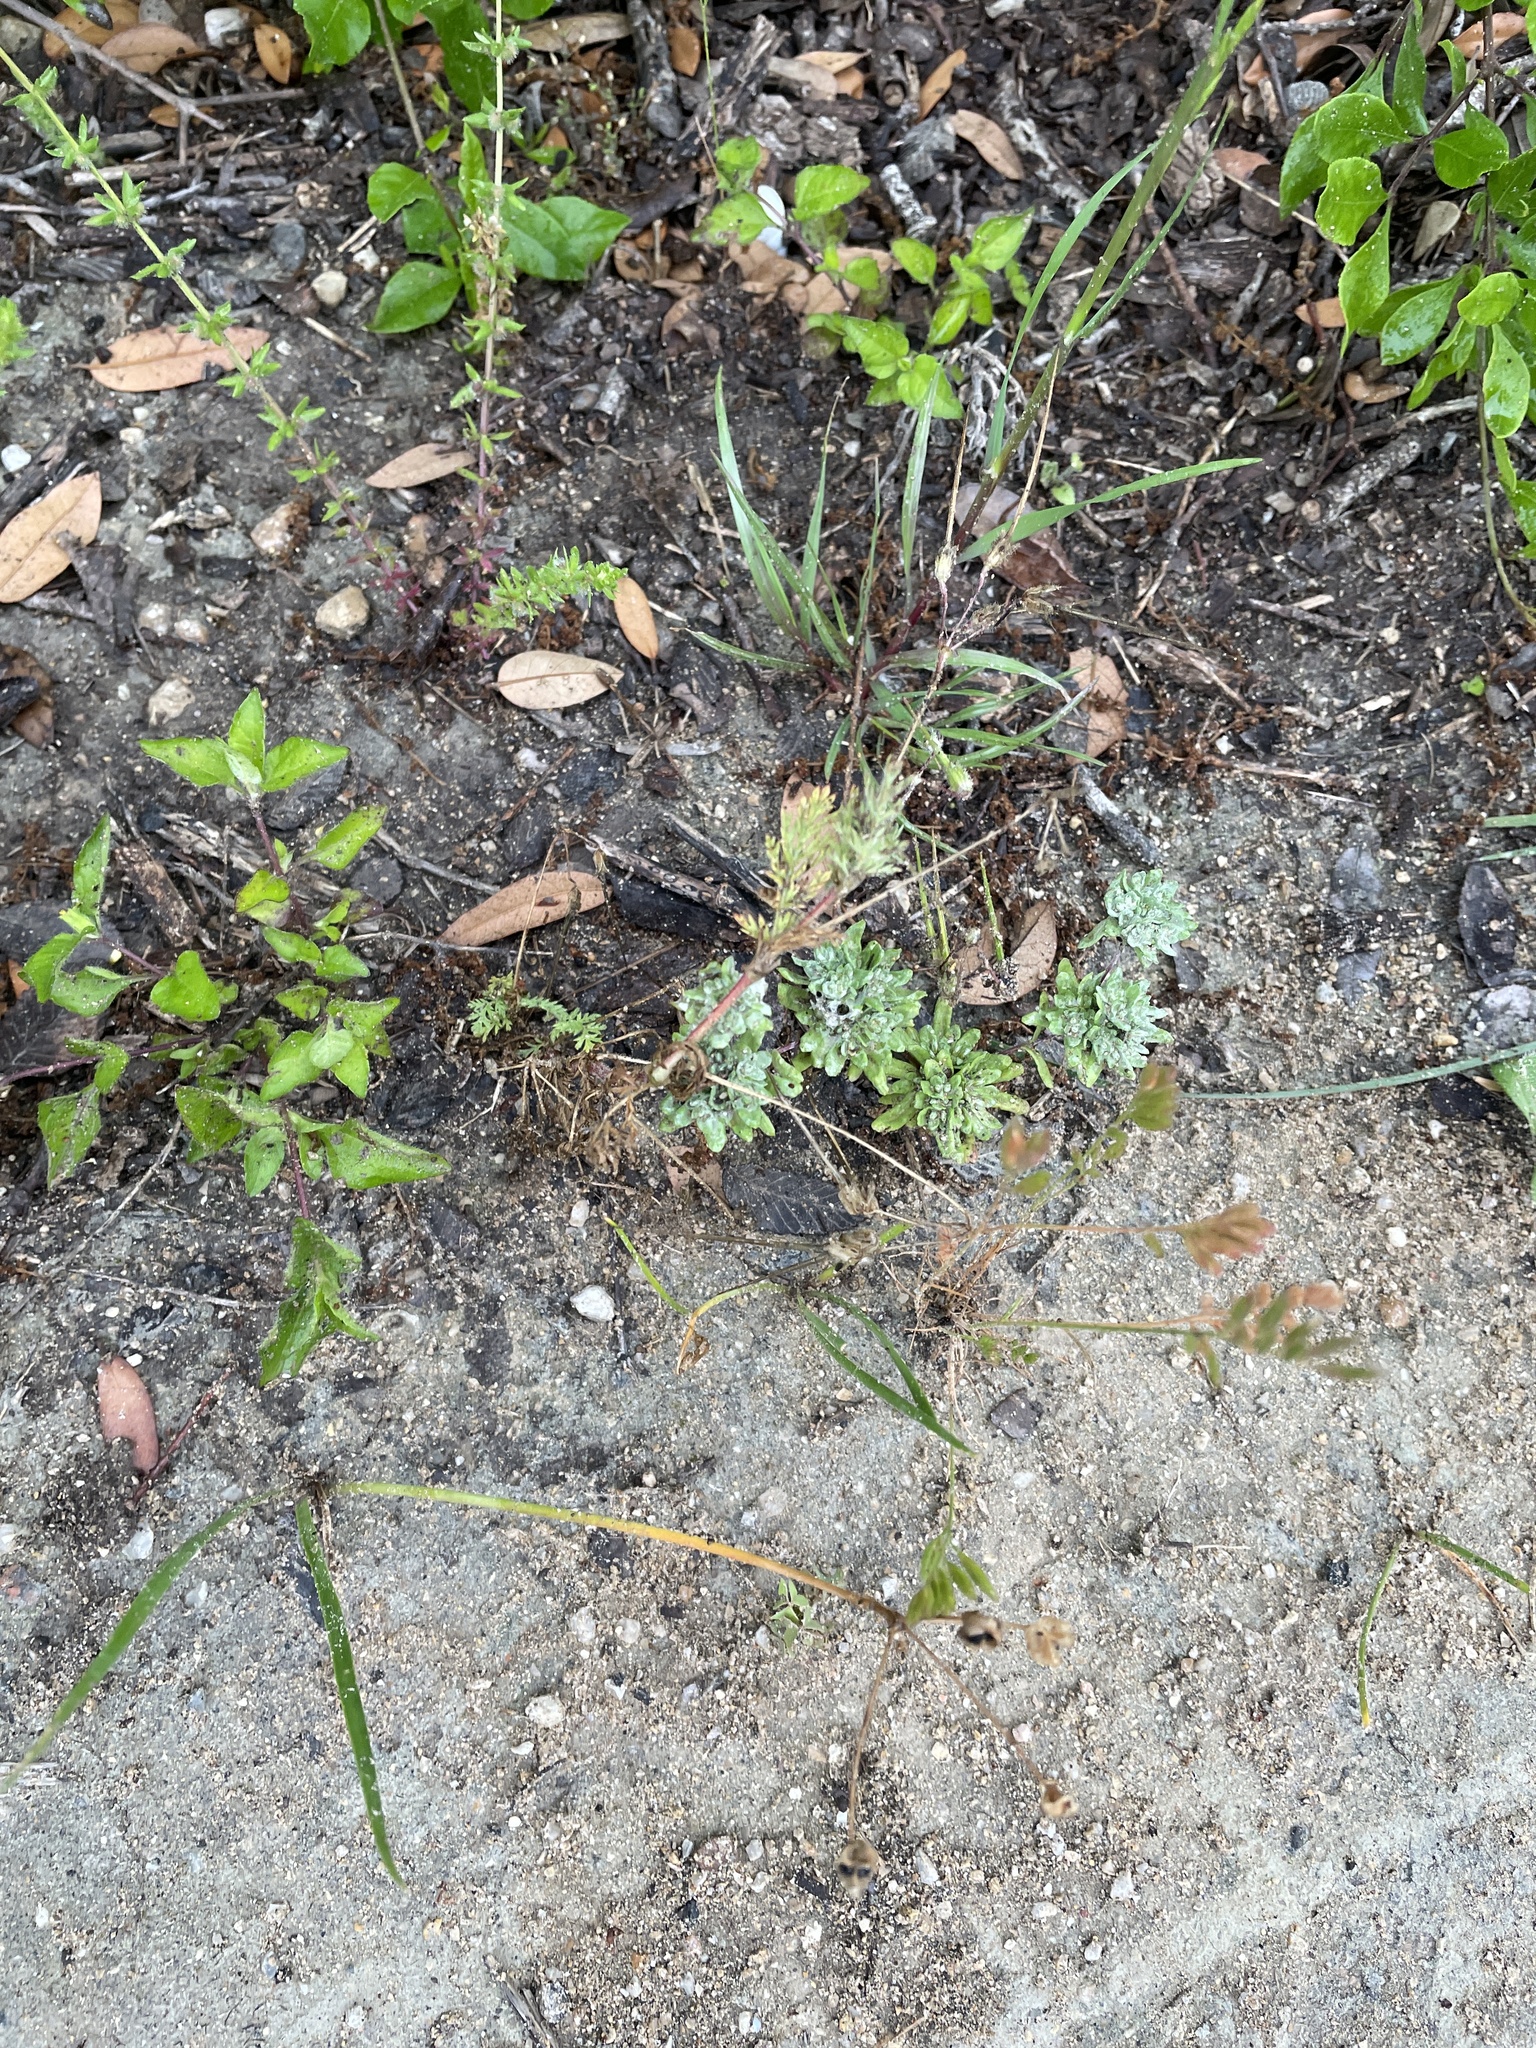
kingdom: Plantae
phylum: Tracheophyta
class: Magnoliopsida
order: Geraniales
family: Geraniaceae
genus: Erodium
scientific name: Erodium cicutarium
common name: Common stork's-bill
